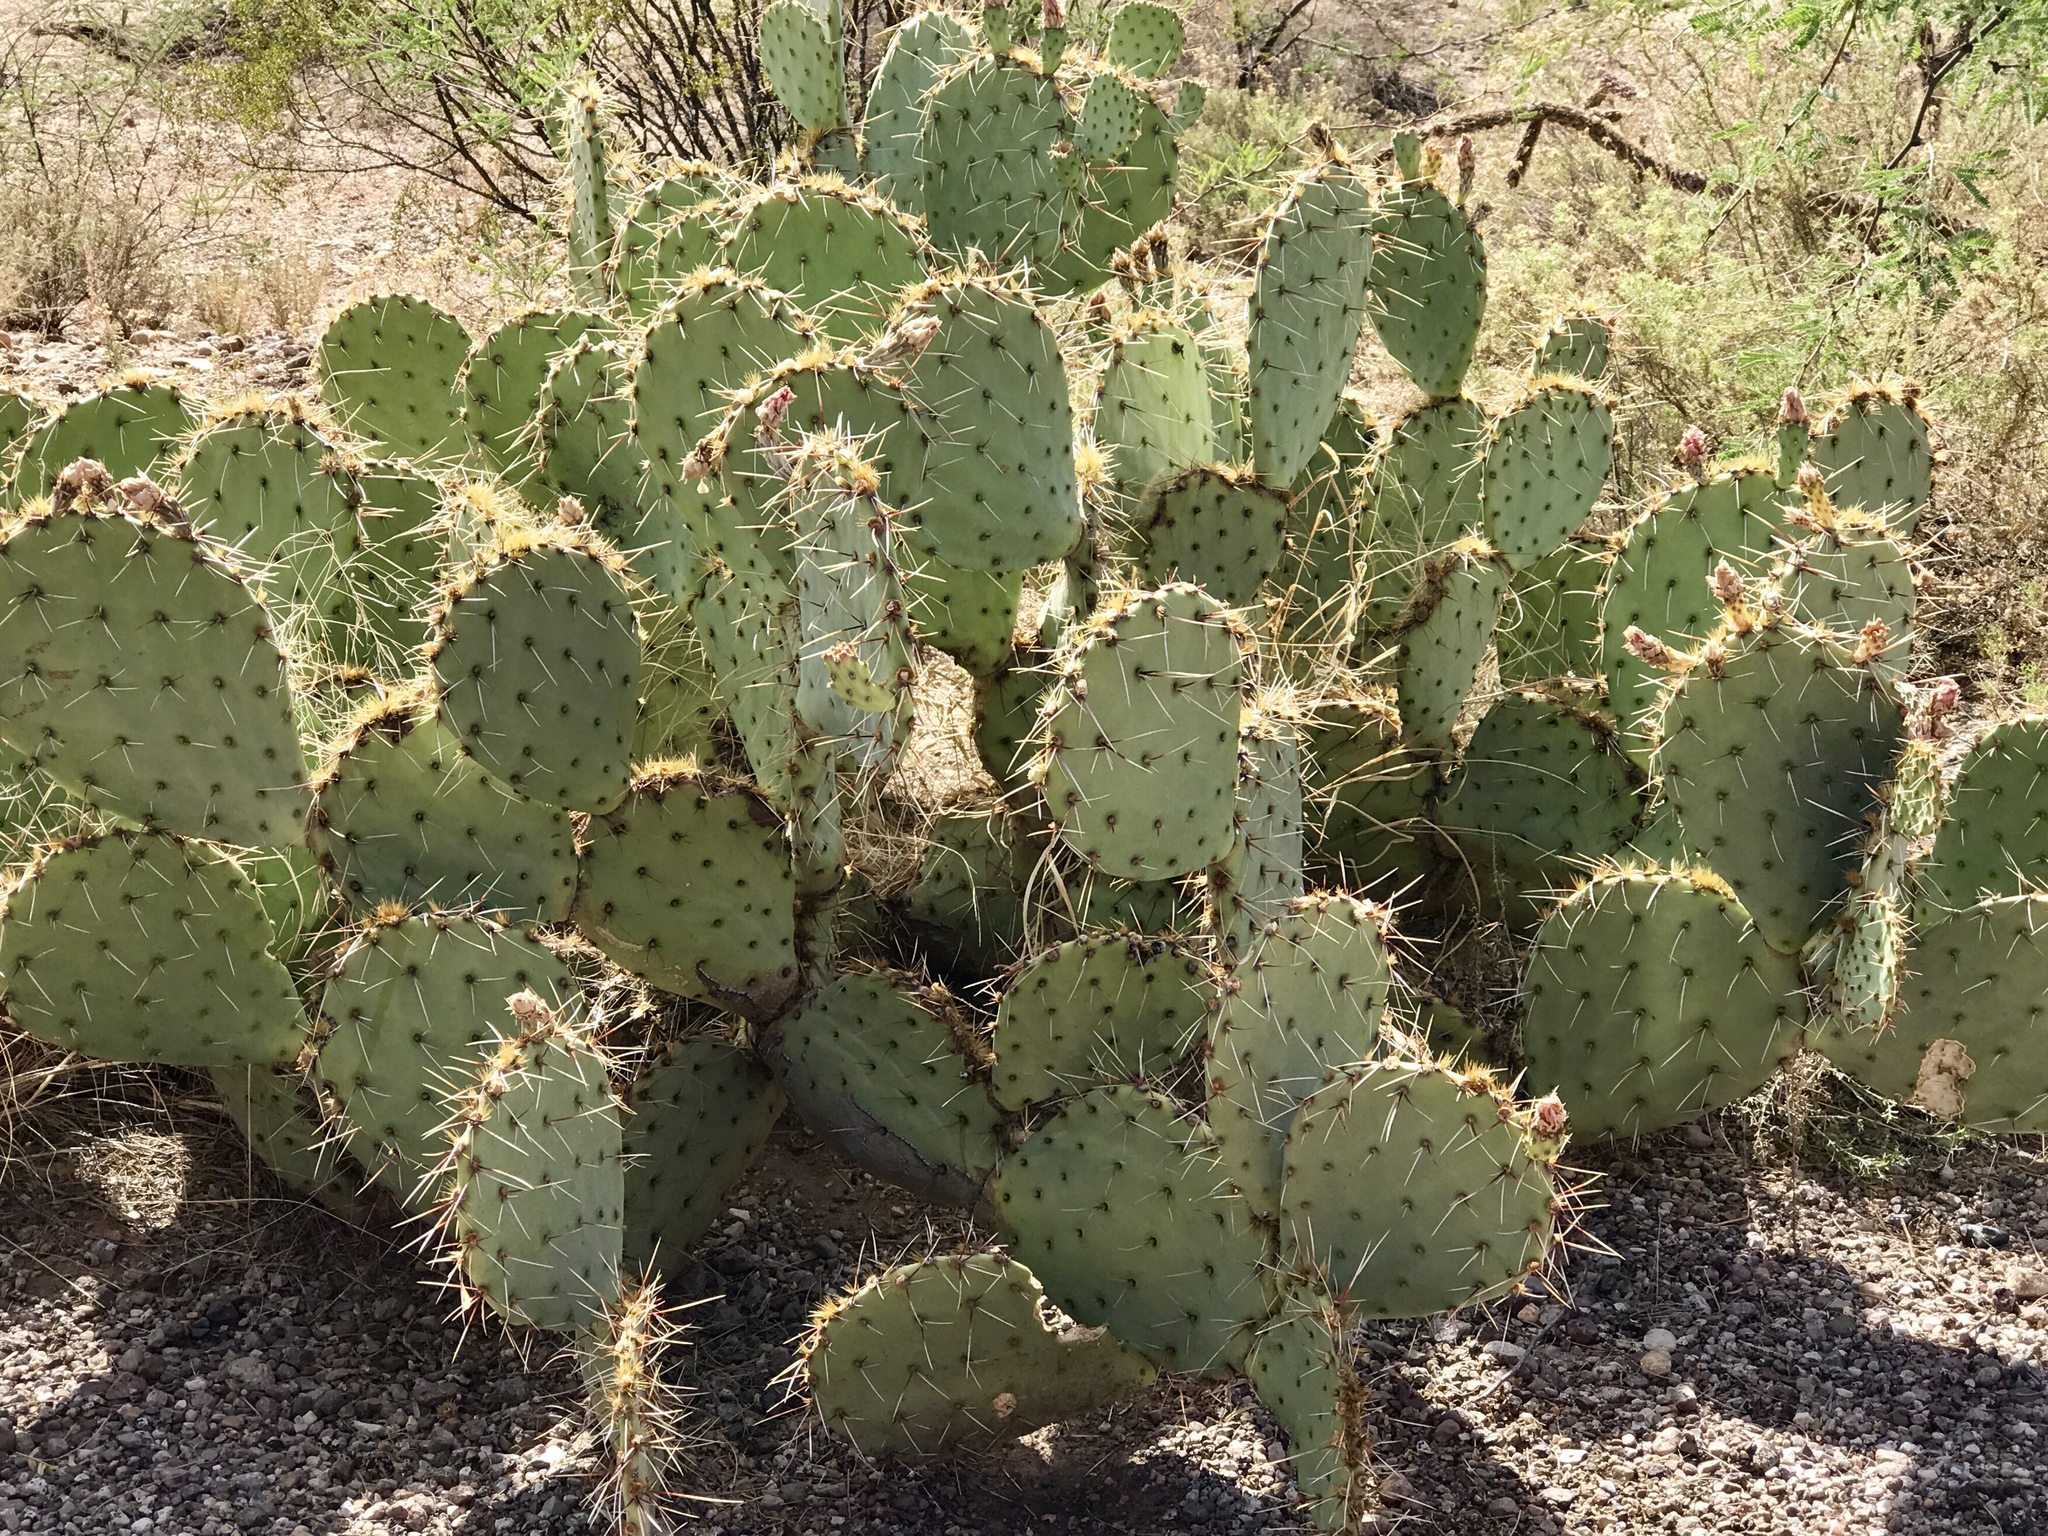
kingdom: Plantae
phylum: Tracheophyta
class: Magnoliopsida
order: Caryophyllales
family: Cactaceae
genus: Opuntia
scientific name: Opuntia engelmannii
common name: Cactus-apple
